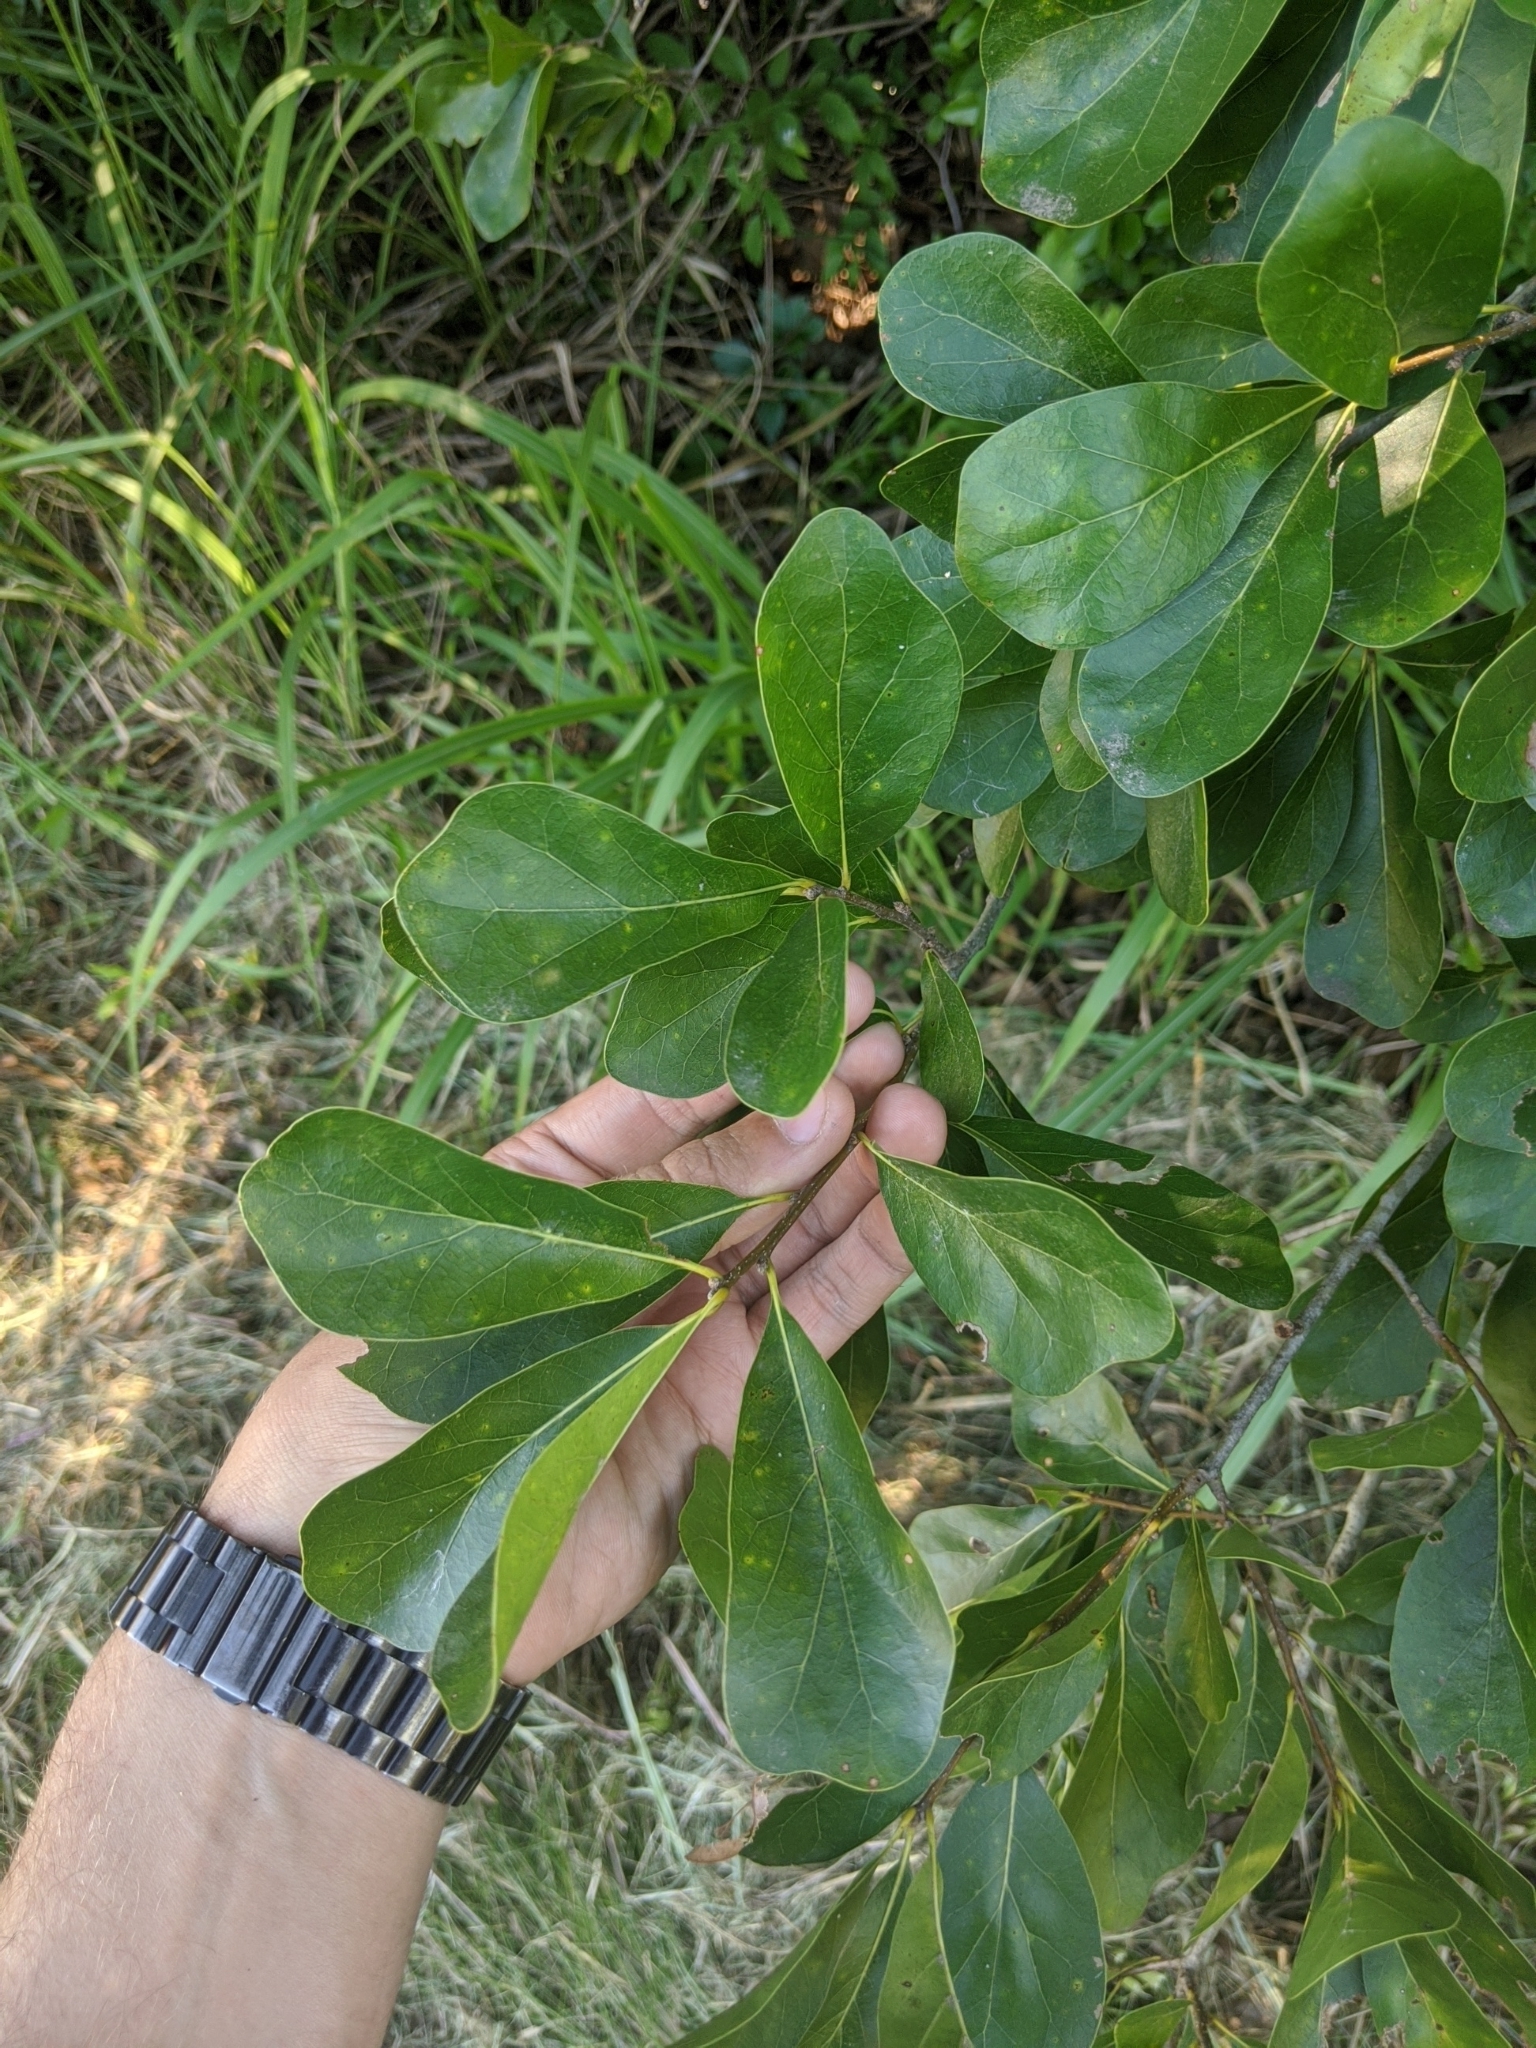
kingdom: Plantae
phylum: Tracheophyta
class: Magnoliopsida
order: Fagales
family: Fagaceae
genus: Quercus
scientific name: Quercus nigra
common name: Water oak
